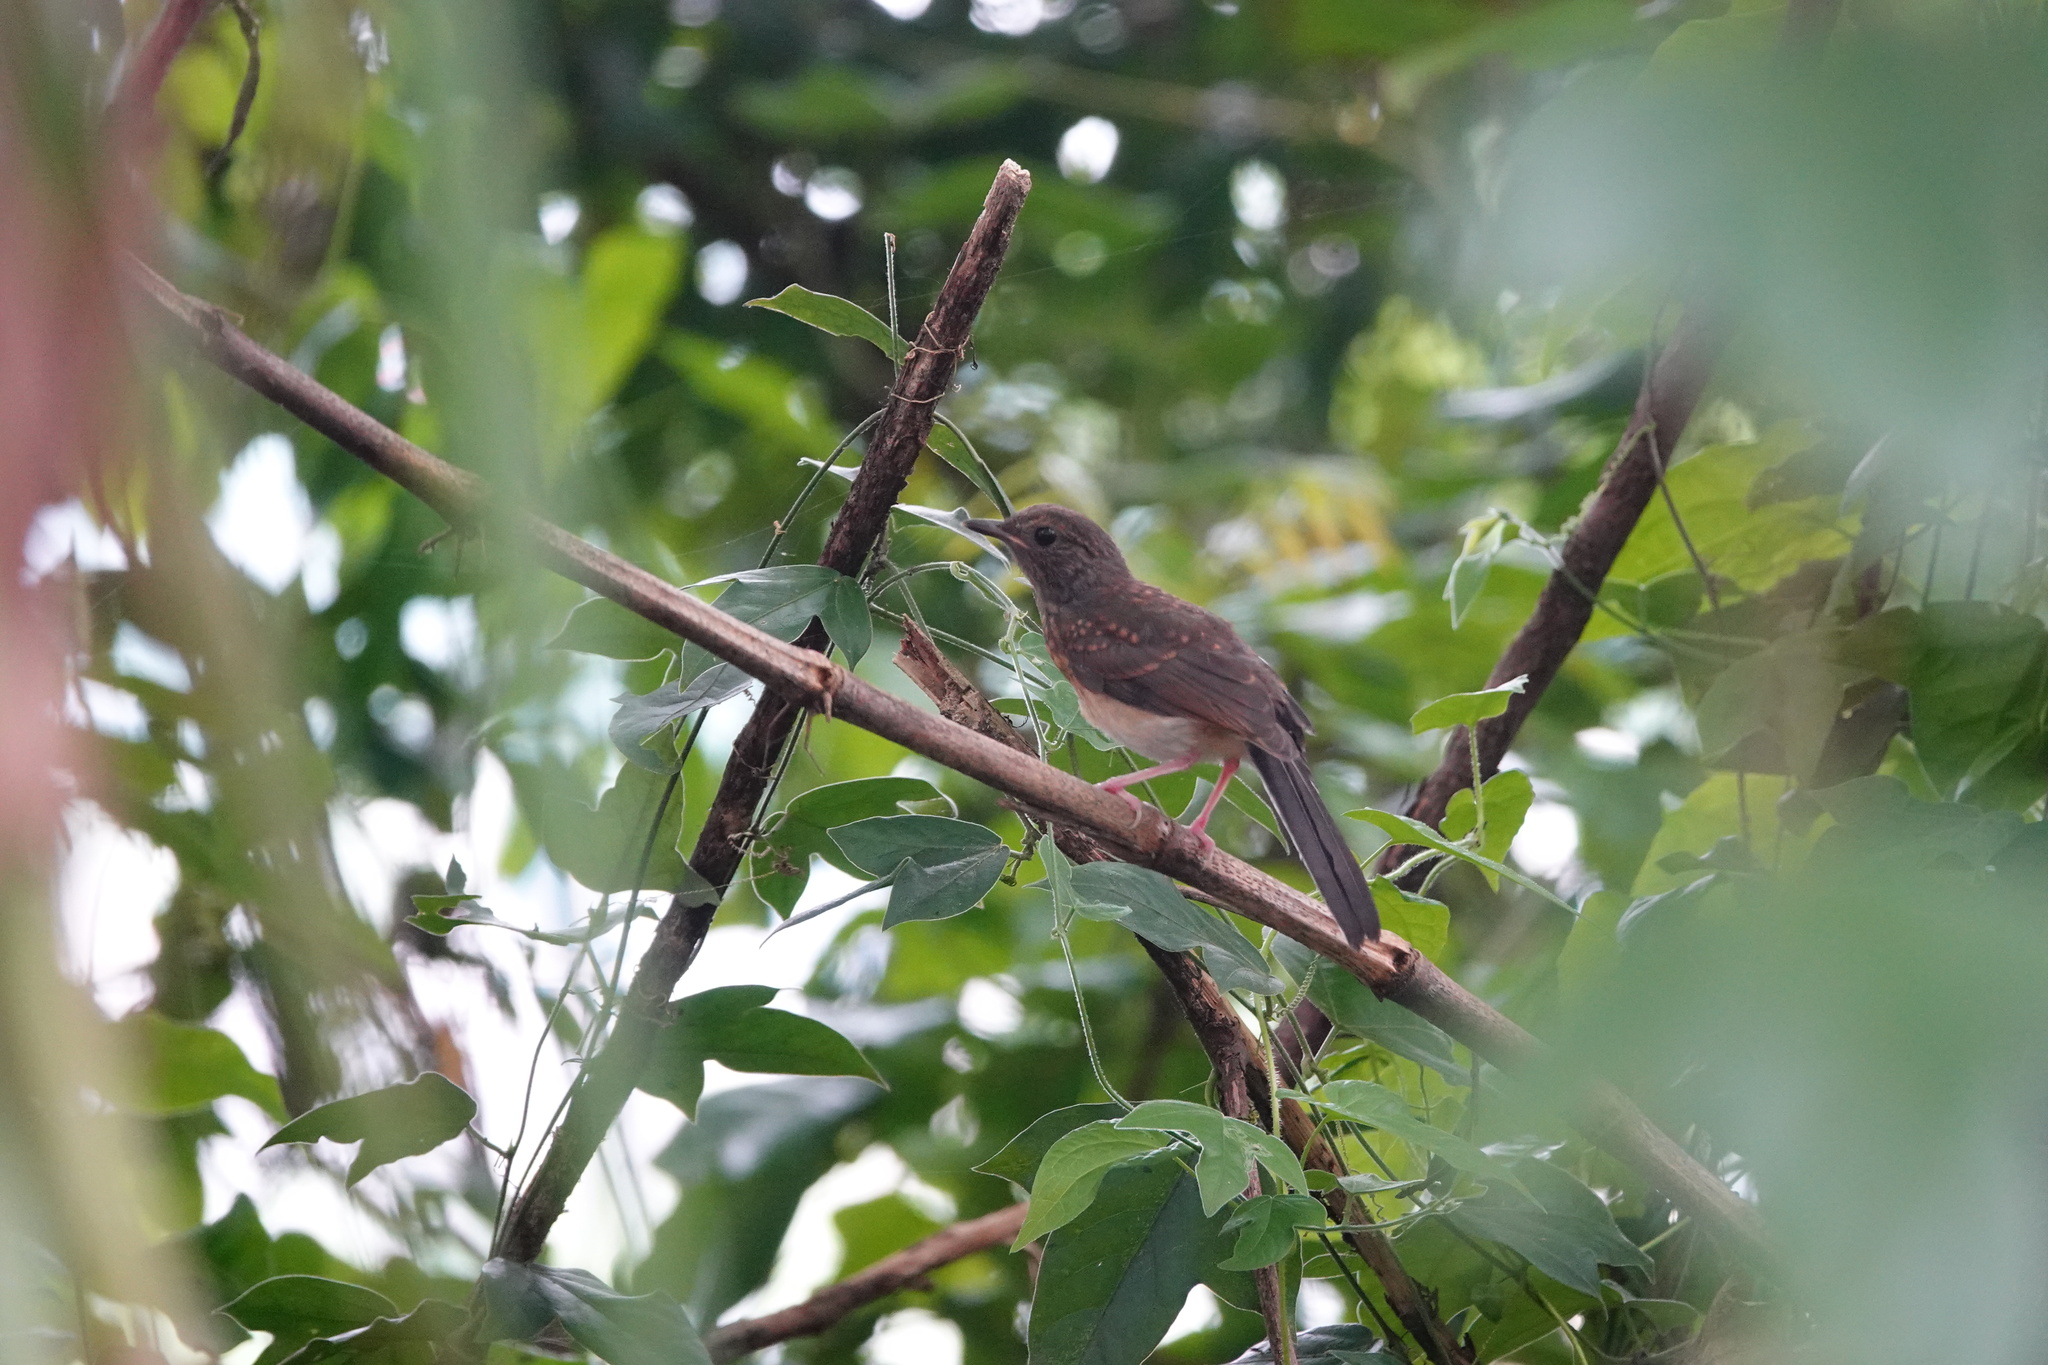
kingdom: Animalia
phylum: Chordata
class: Aves
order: Passeriformes
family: Muscicapidae
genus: Copsychus
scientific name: Copsychus malabaricus
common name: White-rumped shama
